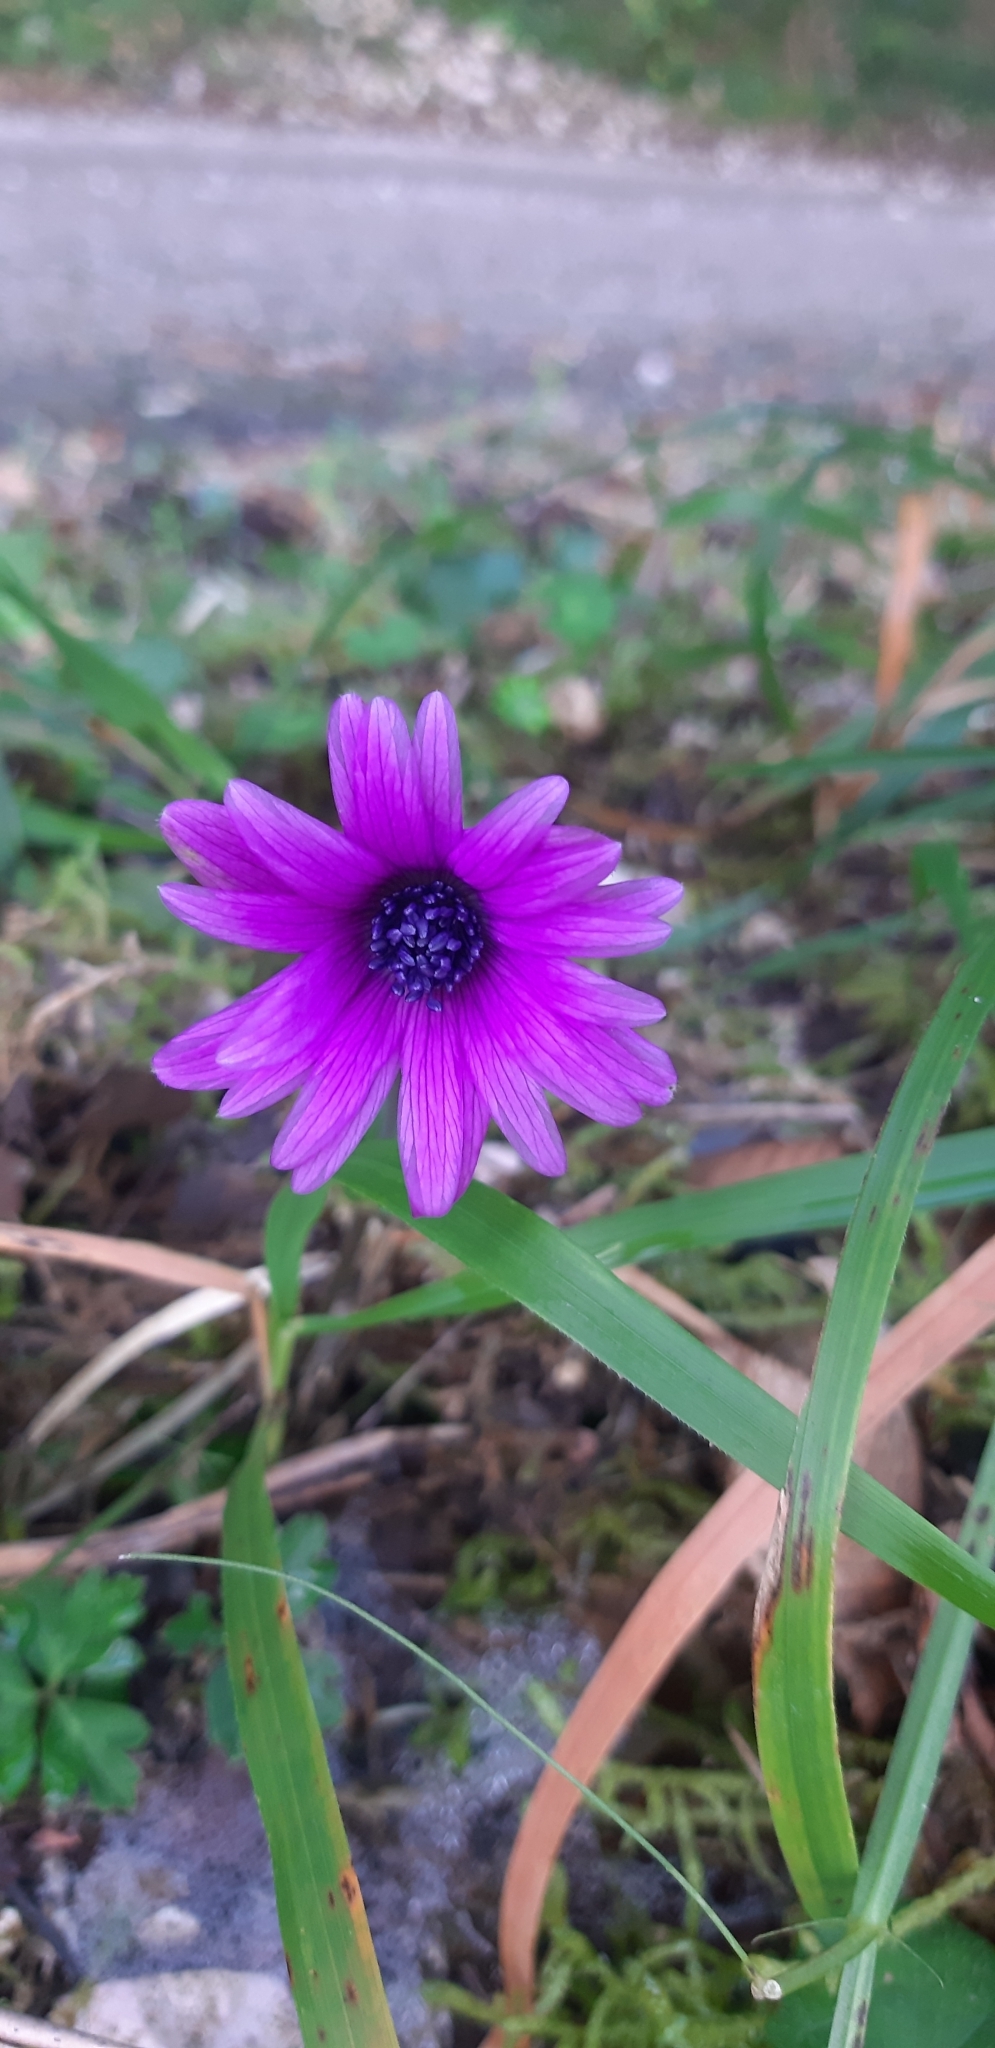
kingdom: Plantae
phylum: Tracheophyta
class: Magnoliopsida
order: Ranunculales
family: Ranunculaceae
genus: Anemone
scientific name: Anemone hortensis
